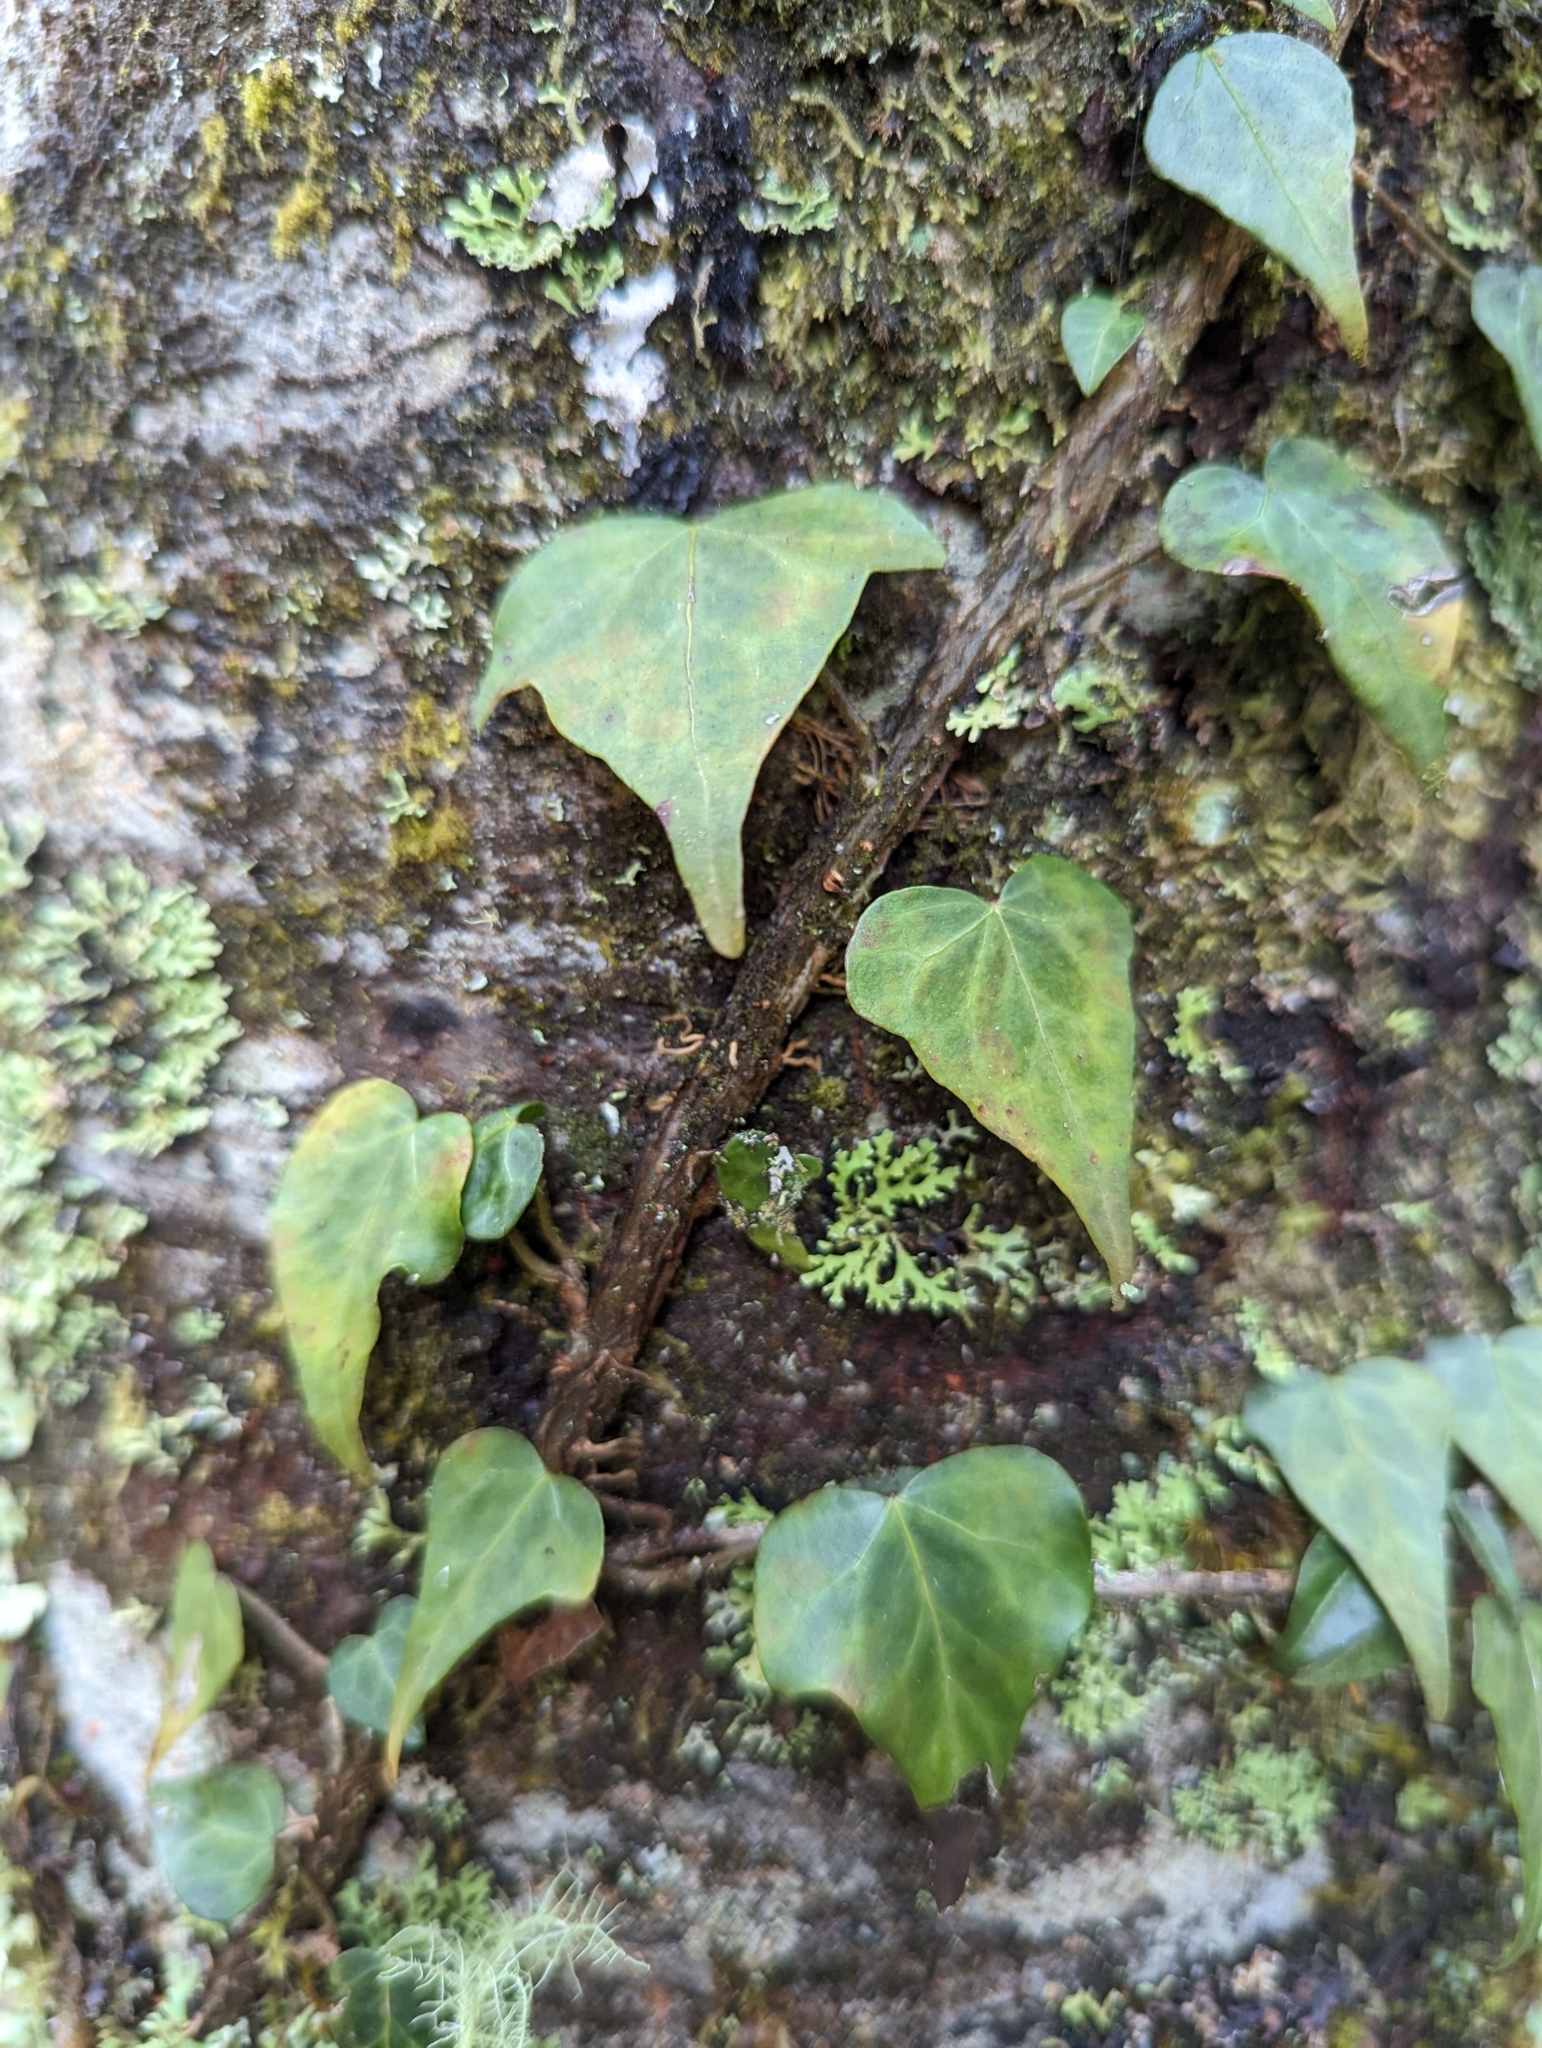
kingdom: Plantae
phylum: Tracheophyta
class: Magnoliopsida
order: Apiales
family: Araliaceae
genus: Hedera
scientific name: Hedera rhombea
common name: Japanese ivy
